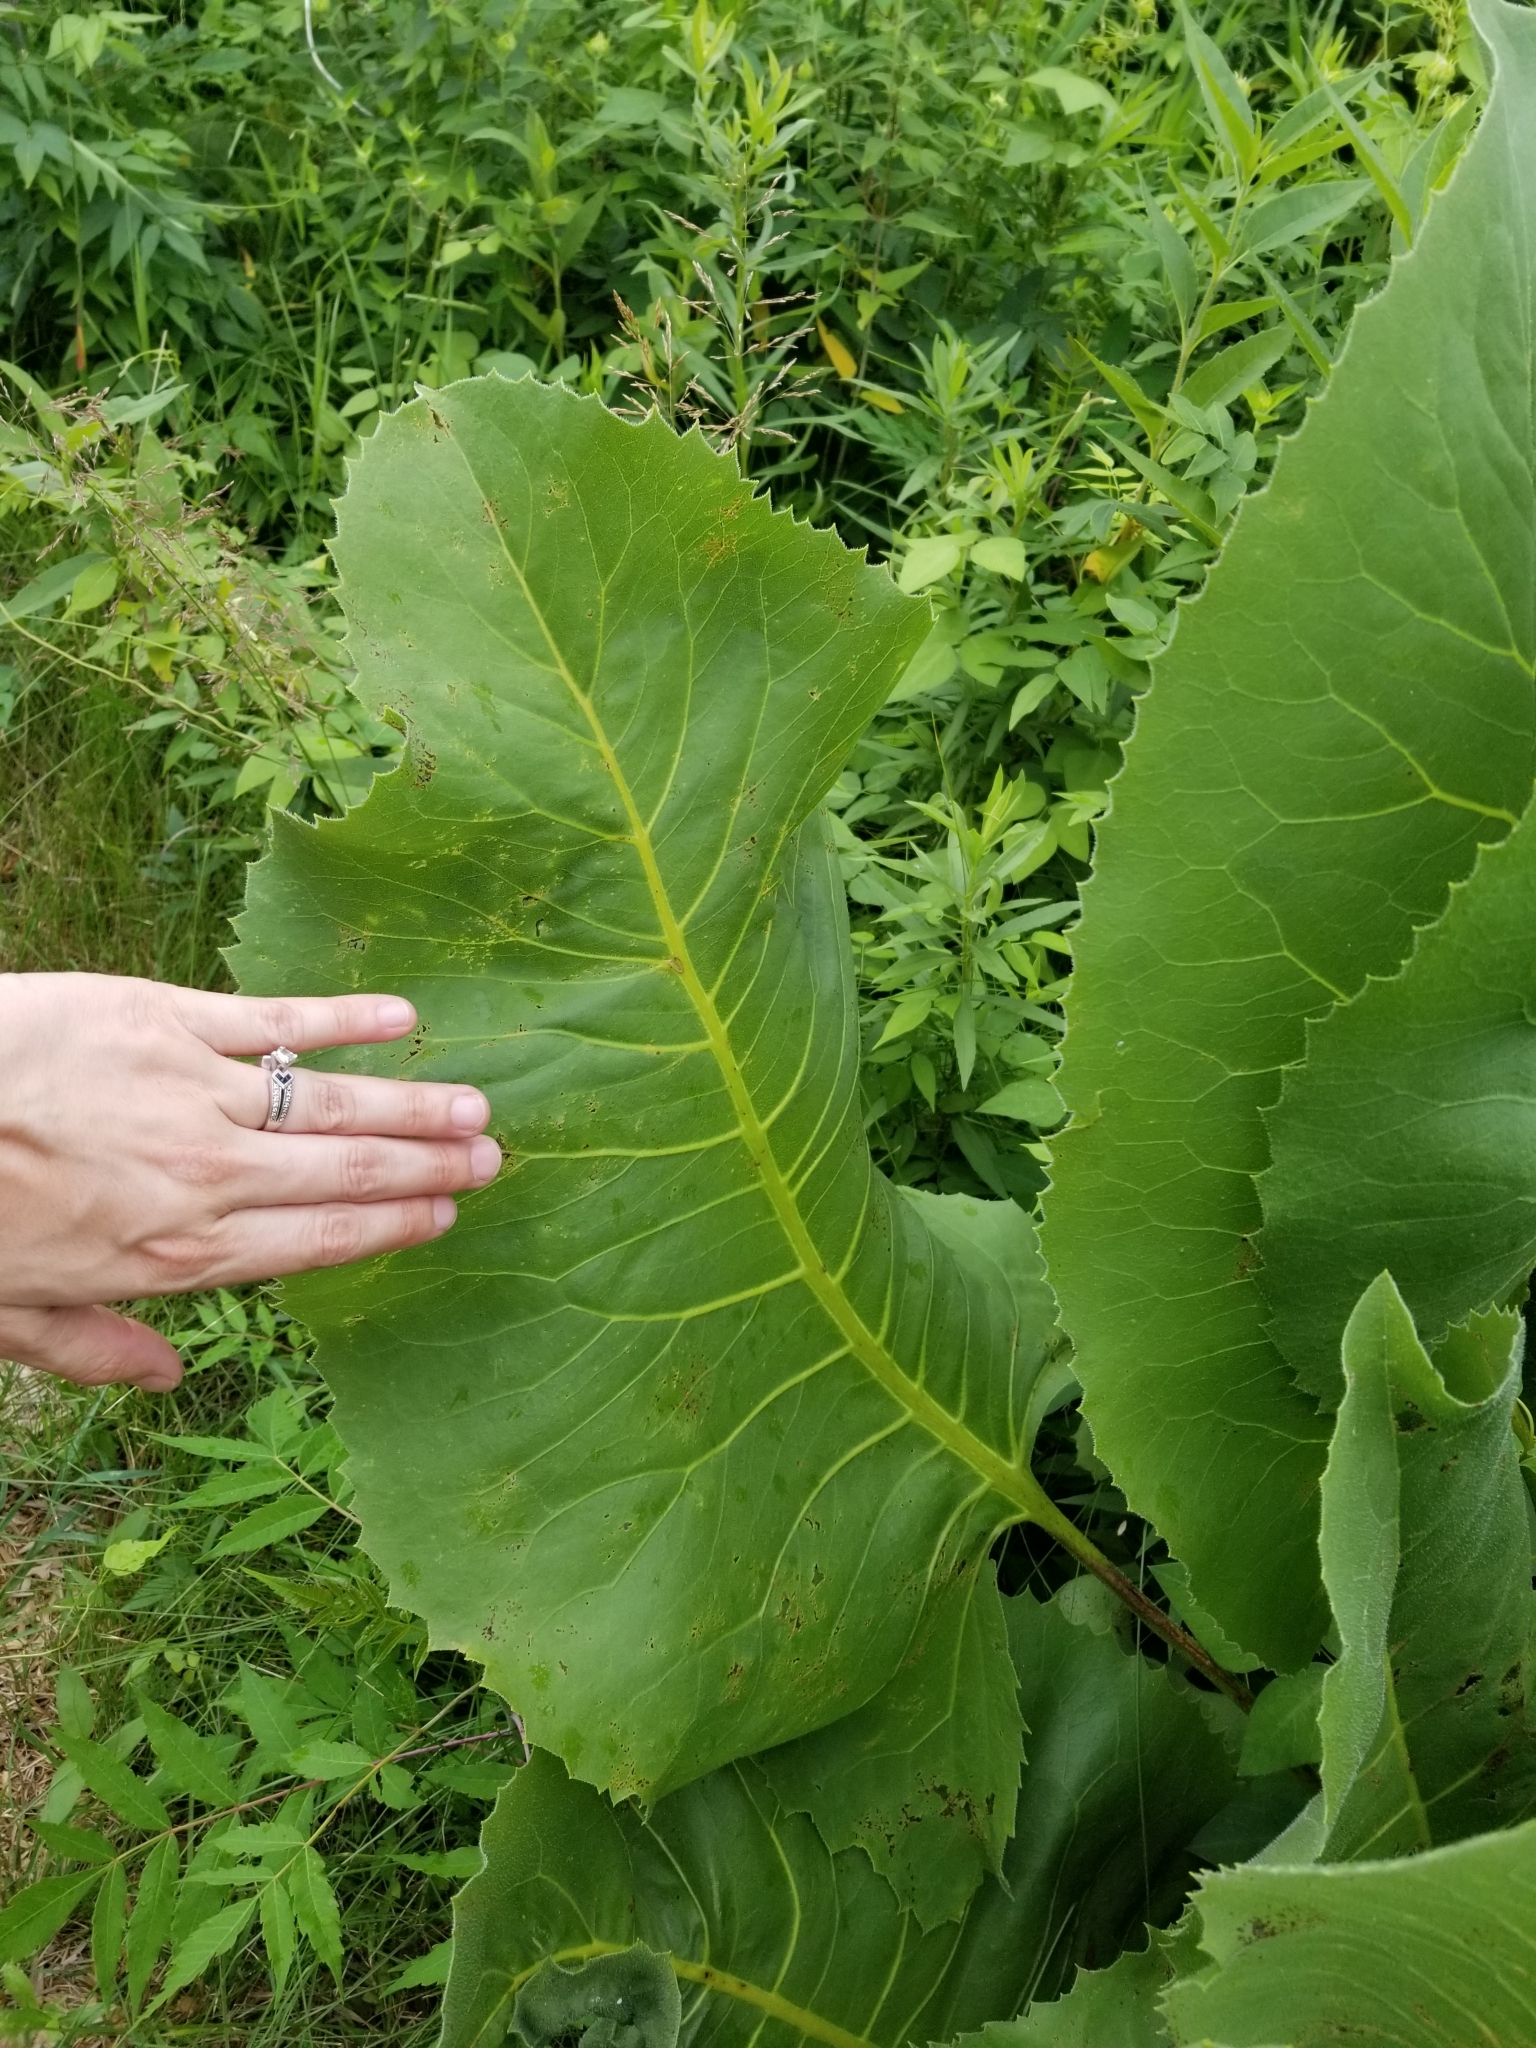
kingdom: Plantae
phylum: Tracheophyta
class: Magnoliopsida
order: Asterales
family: Asteraceae
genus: Silphium
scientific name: Silphium terebinthinaceum
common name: Basal-leaf rosinweed
